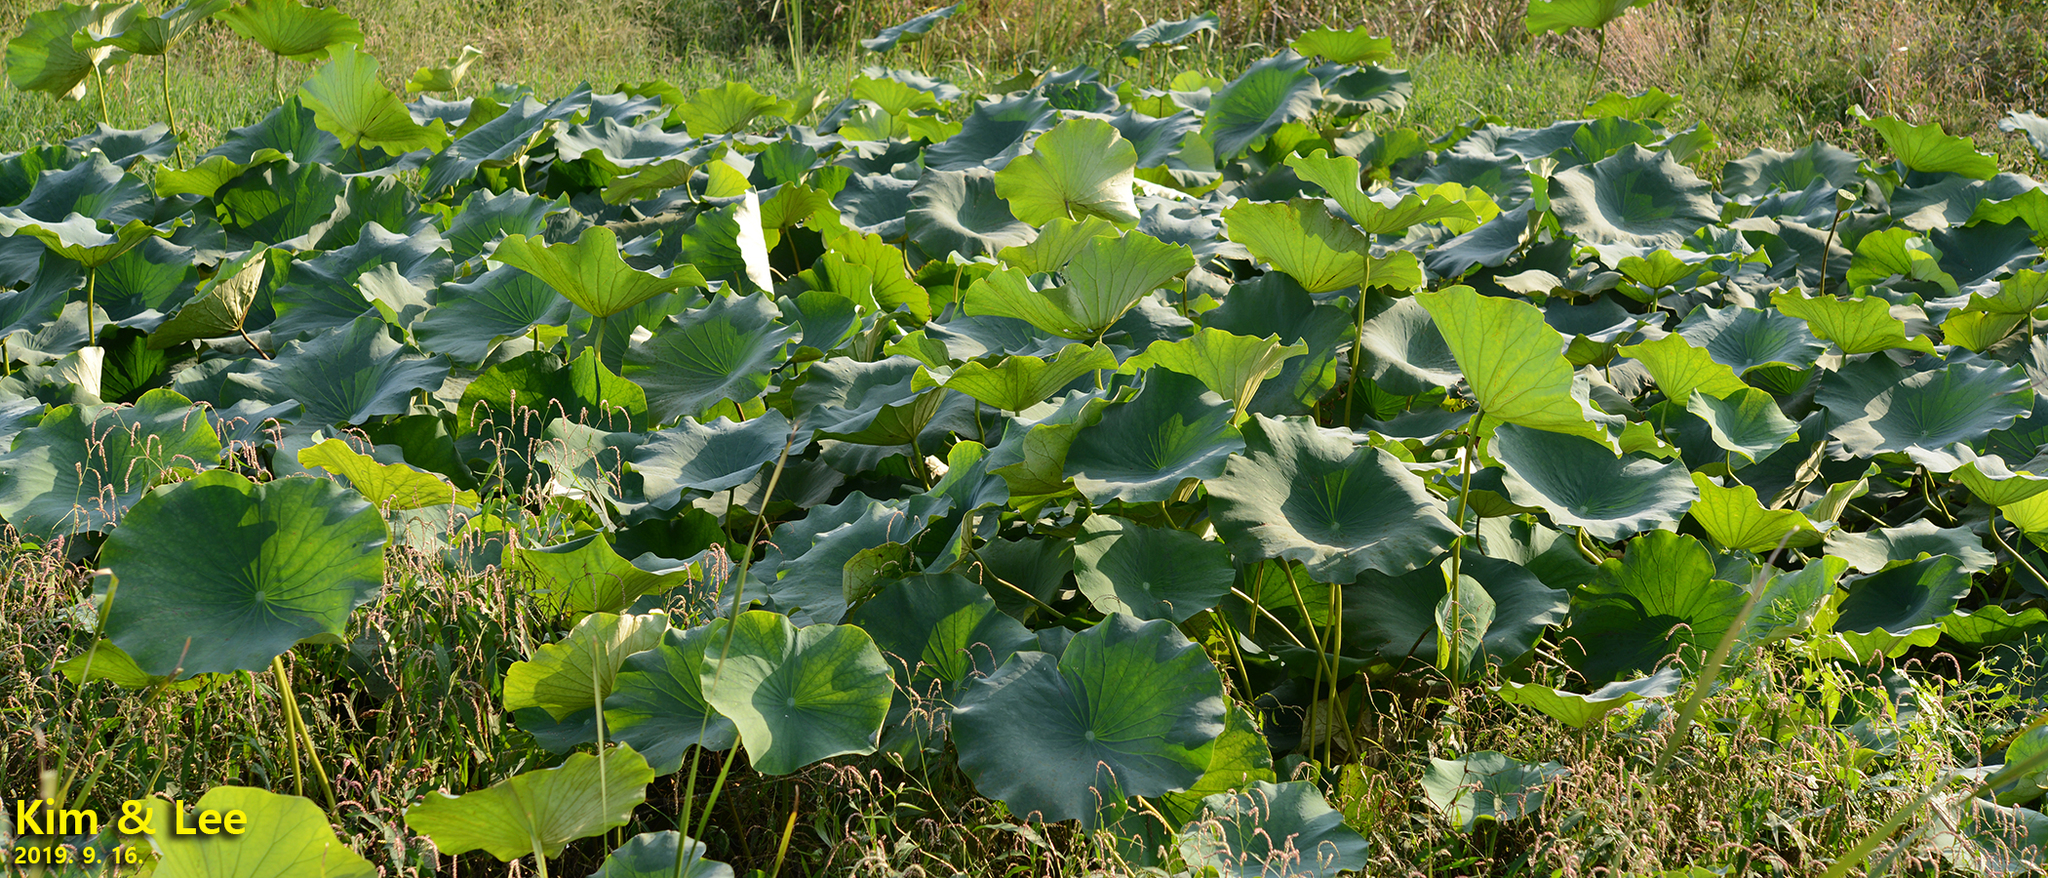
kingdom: Plantae
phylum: Tracheophyta
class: Magnoliopsida
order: Proteales
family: Nelumbonaceae
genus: Nelumbo
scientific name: Nelumbo nucifera
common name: Sacred lotus
